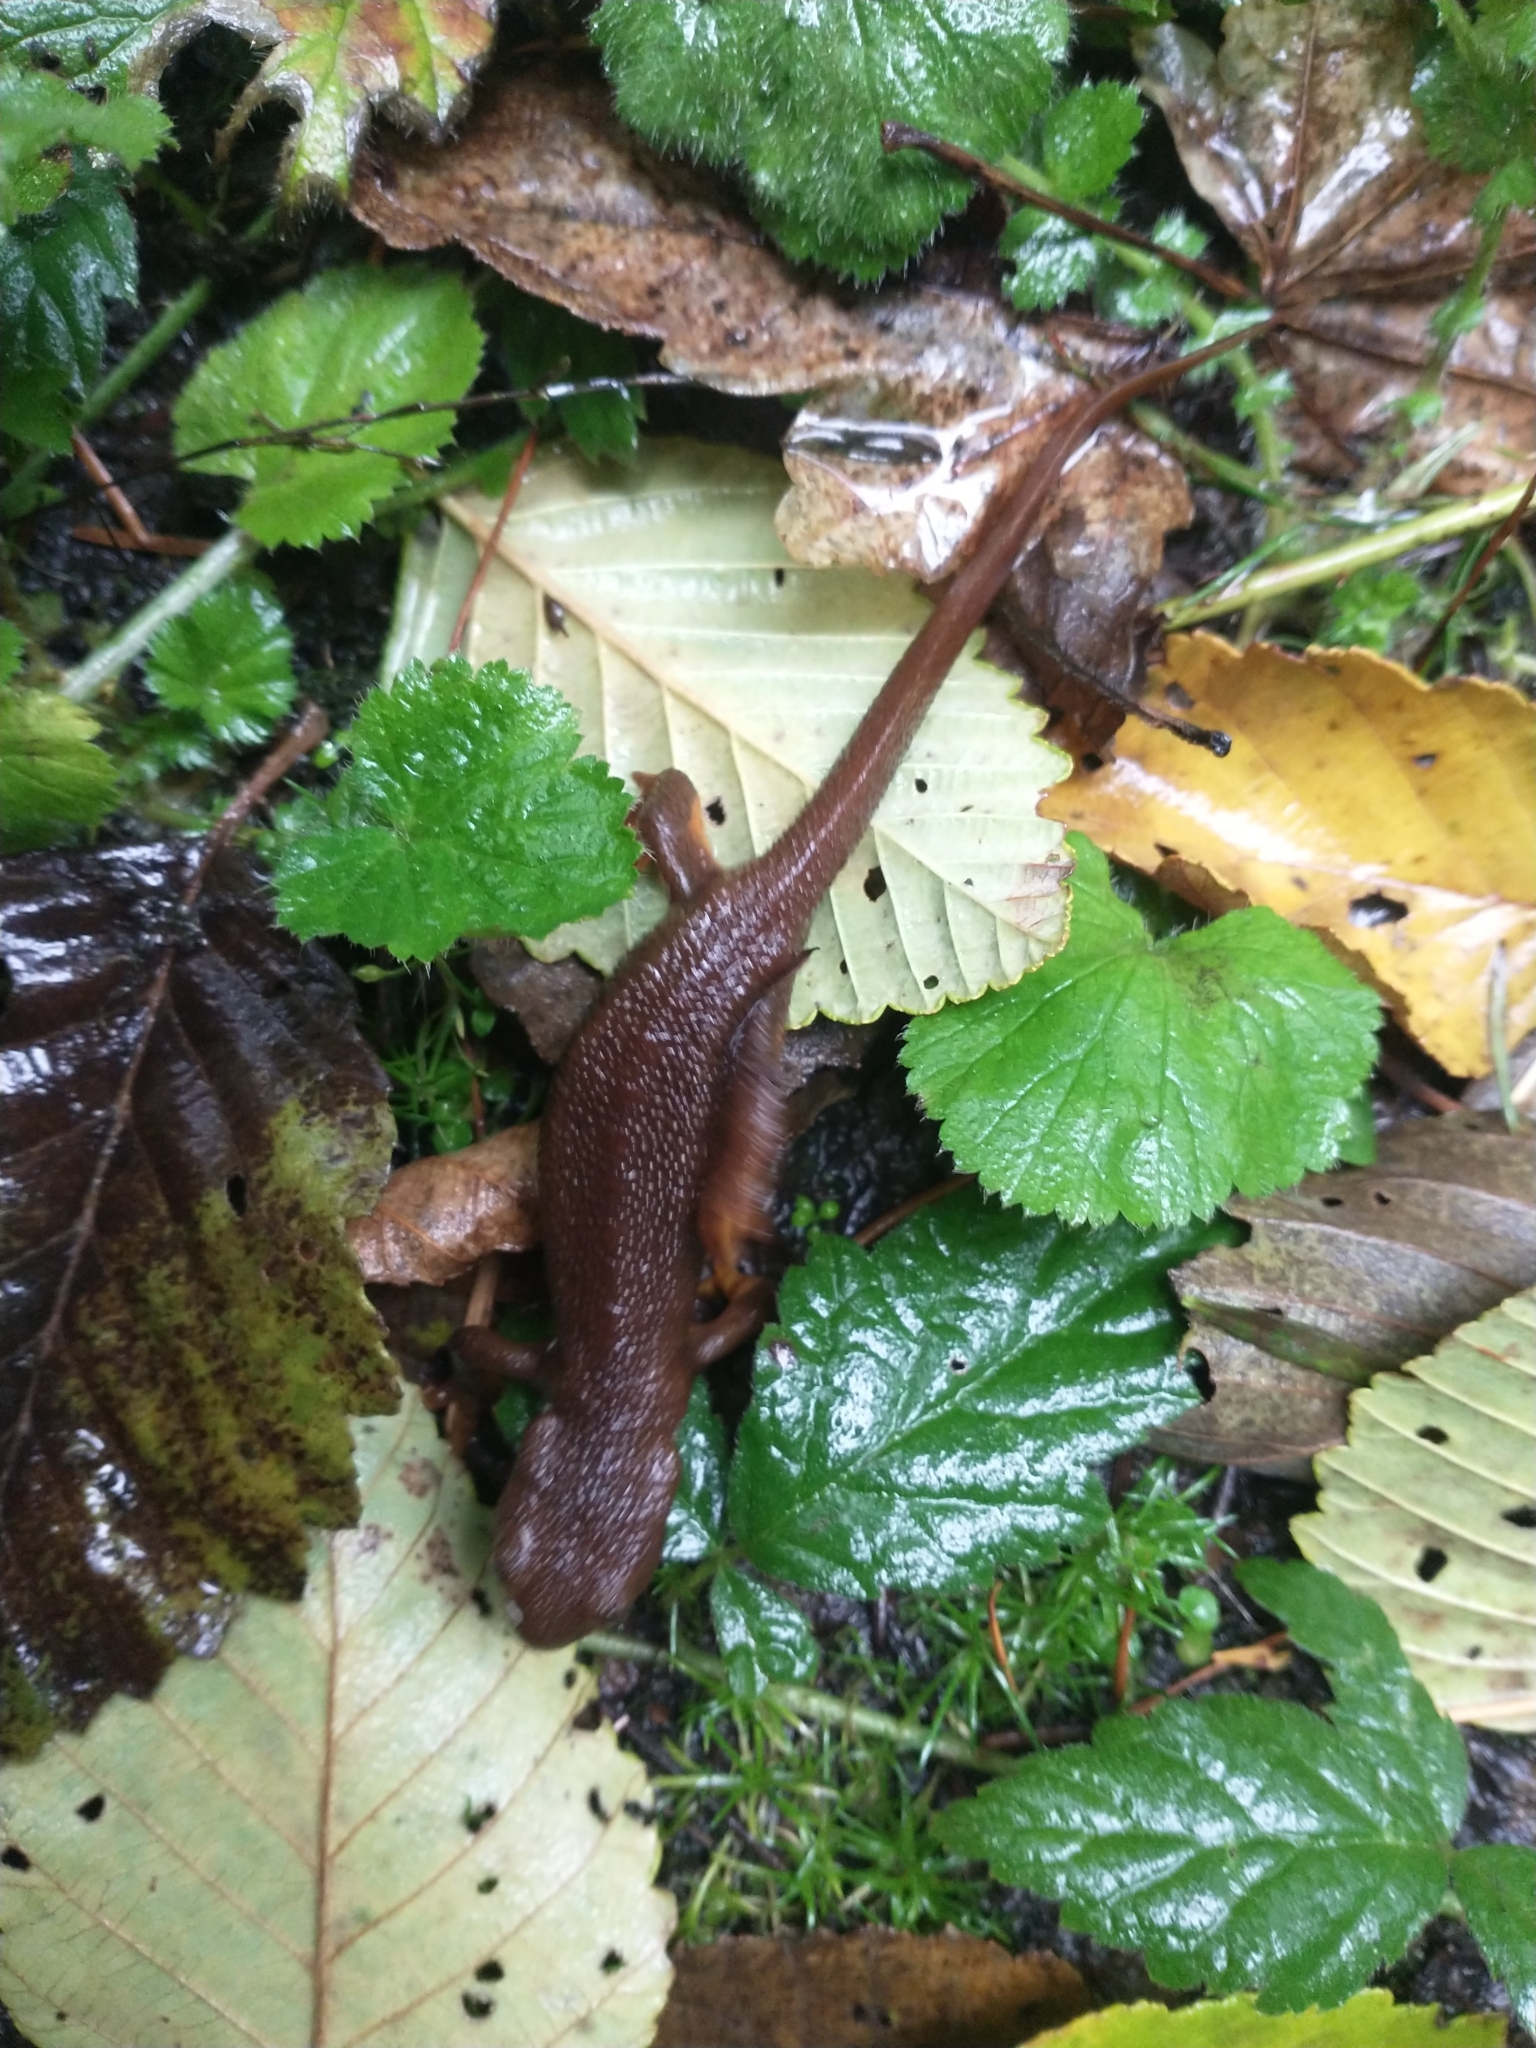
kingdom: Animalia
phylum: Chordata
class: Amphibia
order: Caudata
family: Salamandridae
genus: Taricha
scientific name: Taricha granulosa
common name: Roughskin newt
